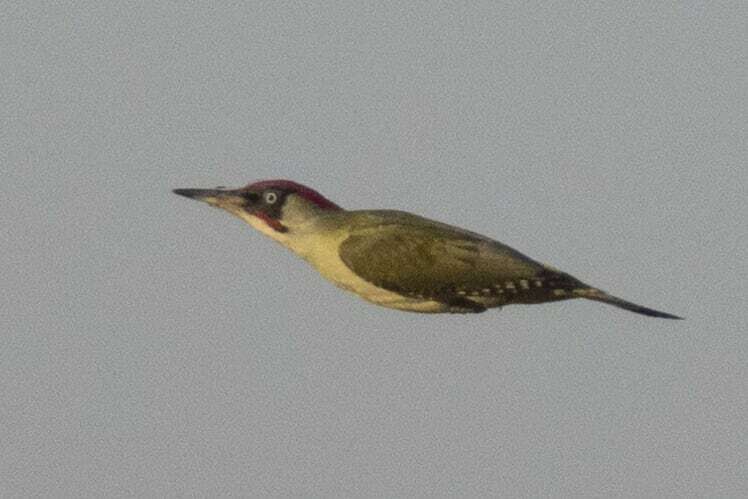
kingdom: Animalia
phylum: Chordata
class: Aves
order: Piciformes
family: Picidae
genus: Picus
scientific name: Picus viridis
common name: European green woodpecker
